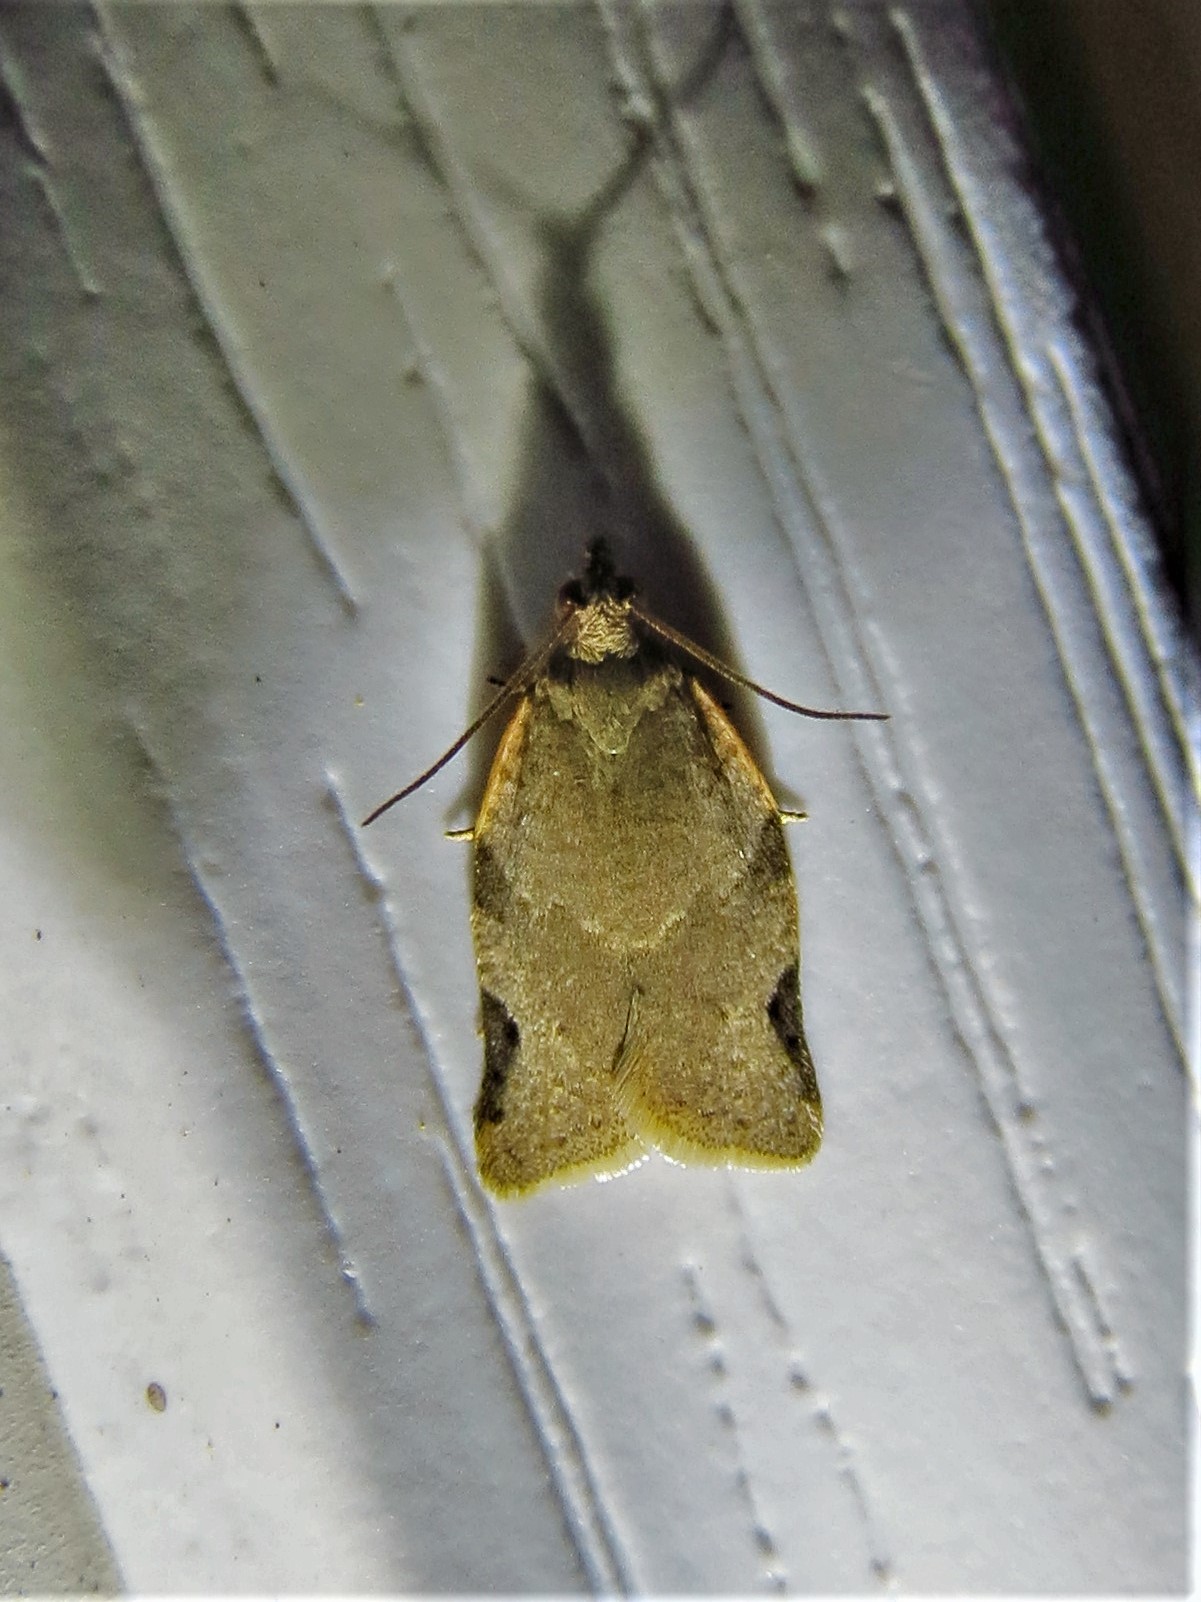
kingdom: Animalia
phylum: Arthropoda
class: Insecta
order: Lepidoptera
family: Tortricidae
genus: Clepsis
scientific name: Clepsis virescana
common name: Greenish apple moth
